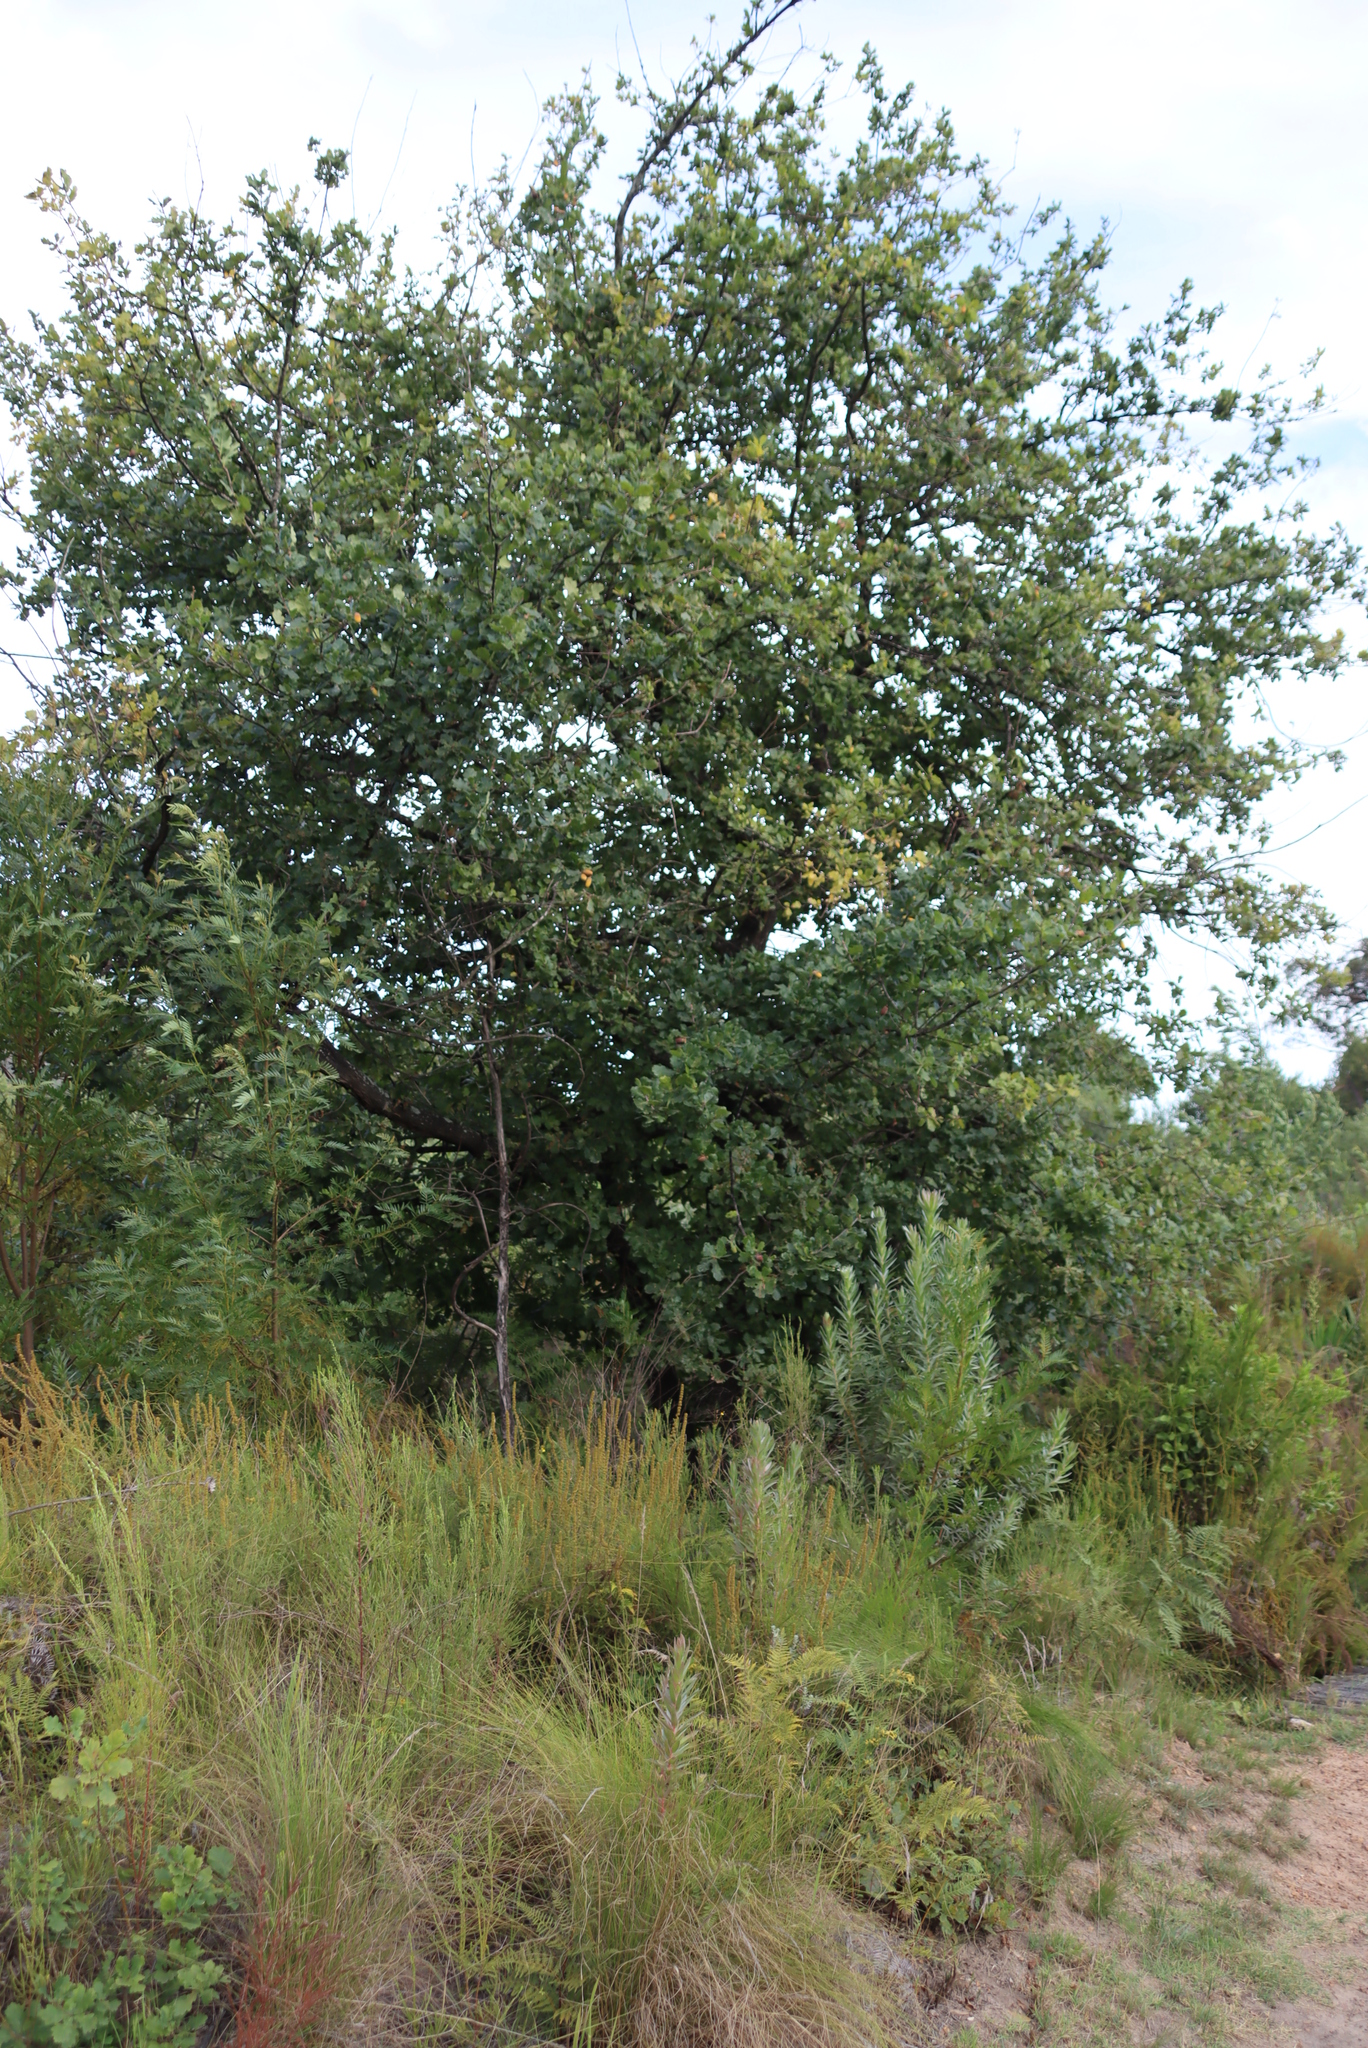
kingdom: Plantae
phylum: Tracheophyta
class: Magnoliopsida
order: Fagales
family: Fagaceae
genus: Quercus
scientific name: Quercus robur
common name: Pedunculate oak
